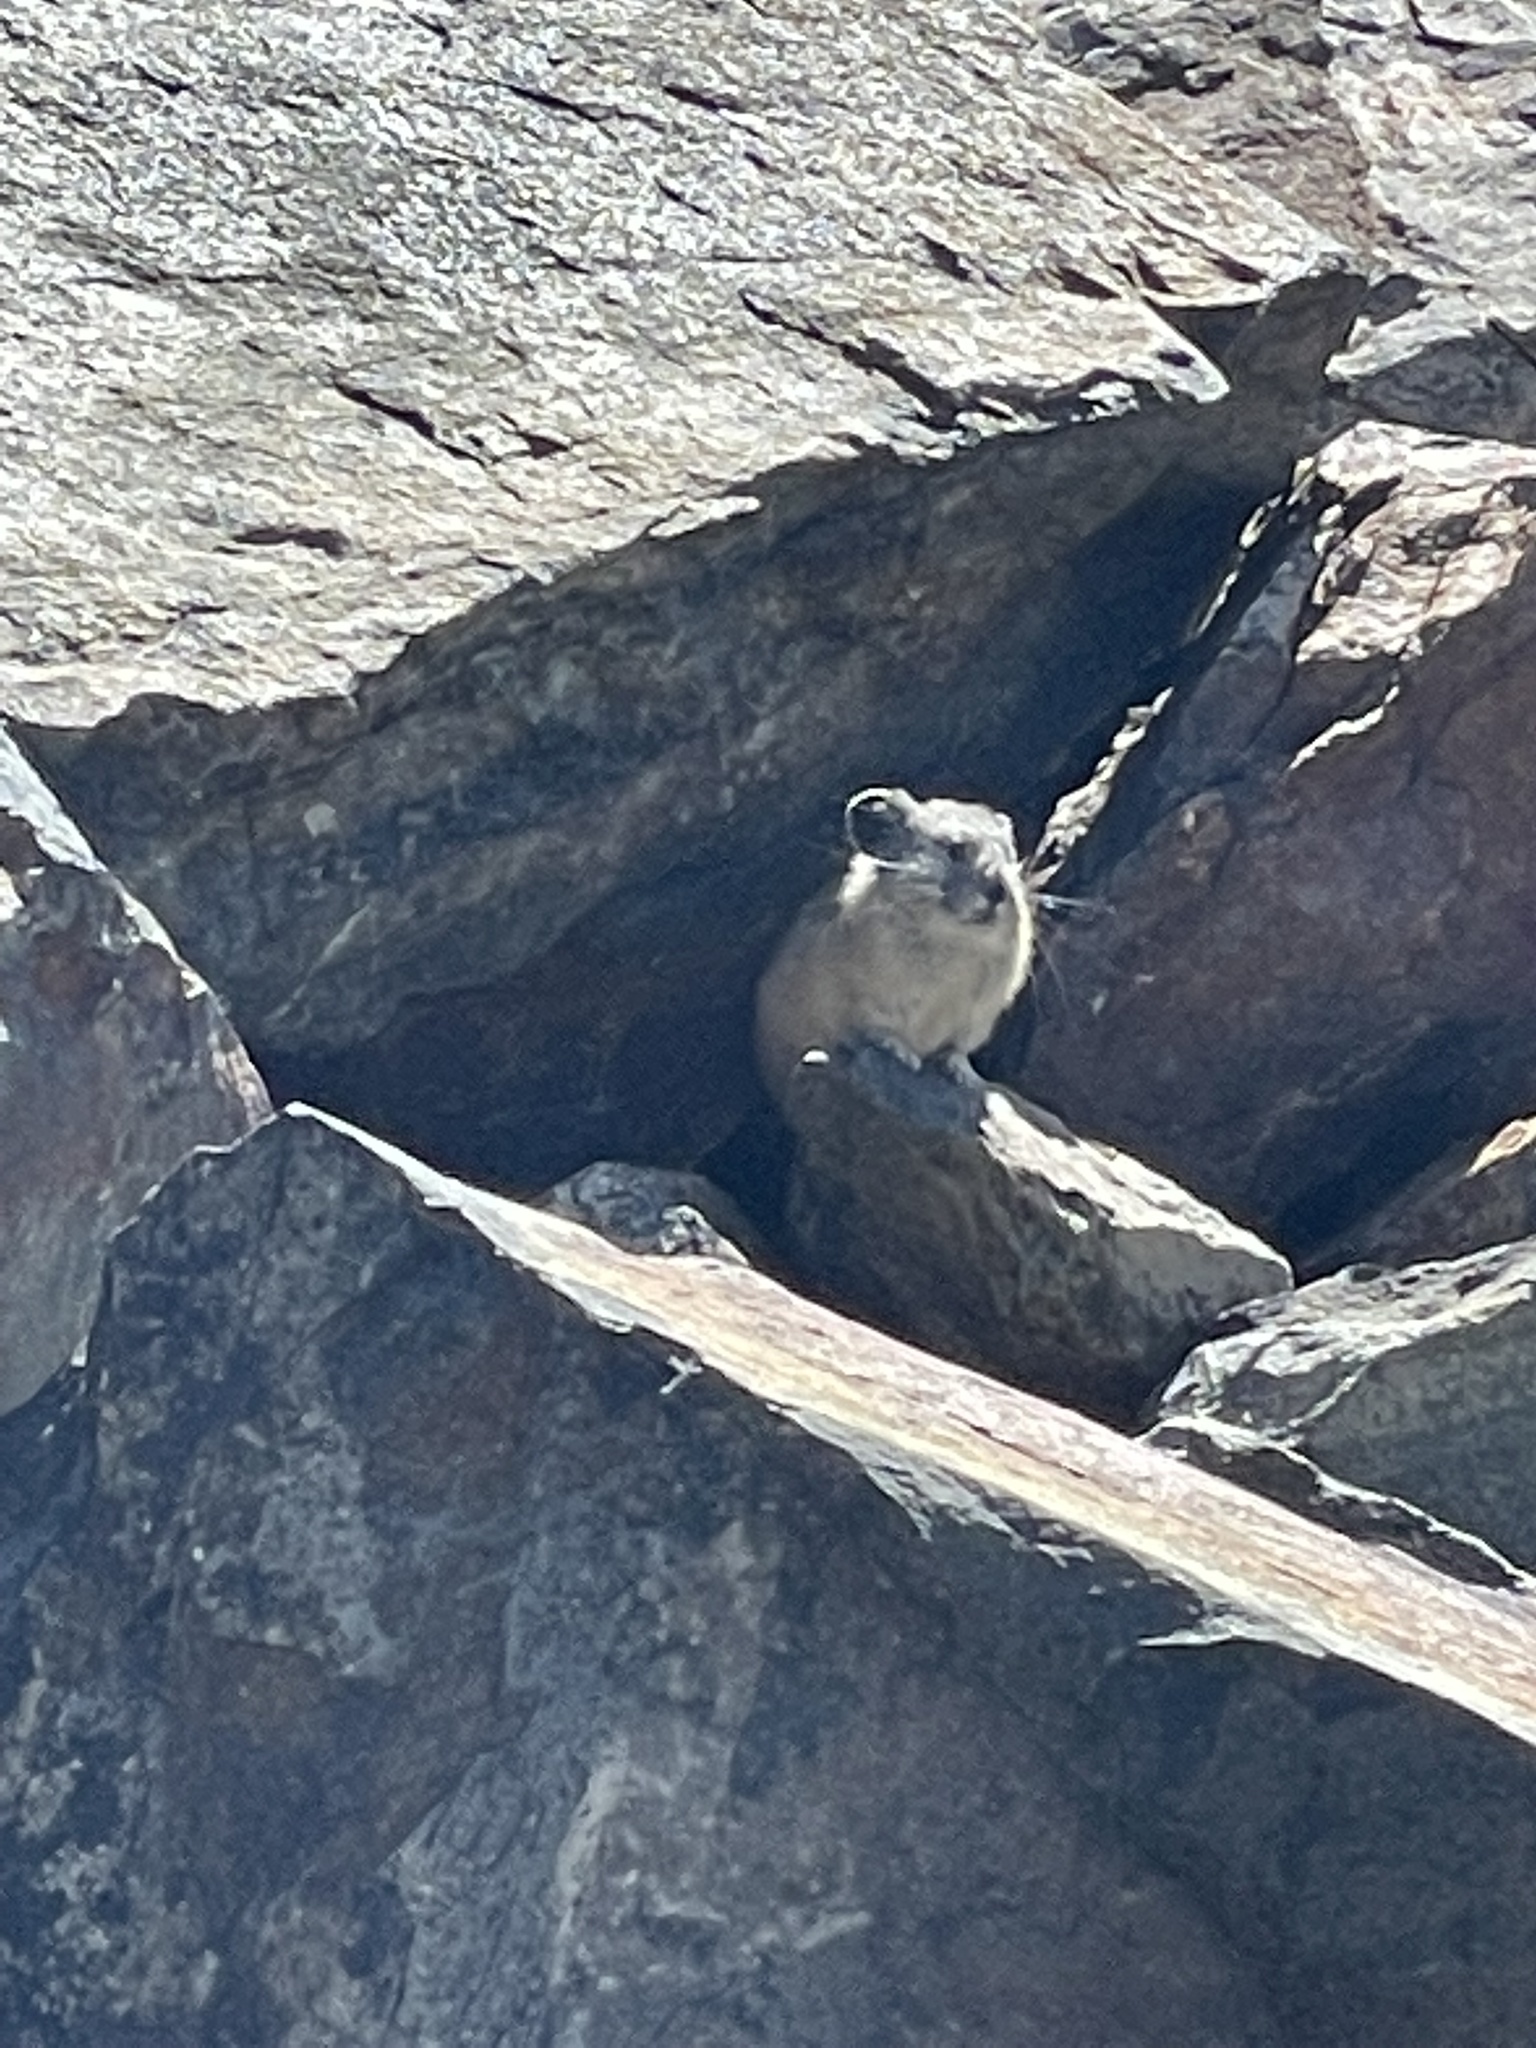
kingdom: Animalia
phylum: Chordata
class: Mammalia
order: Lagomorpha
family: Ochotonidae
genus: Ochotona
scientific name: Ochotona princeps
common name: American pika
